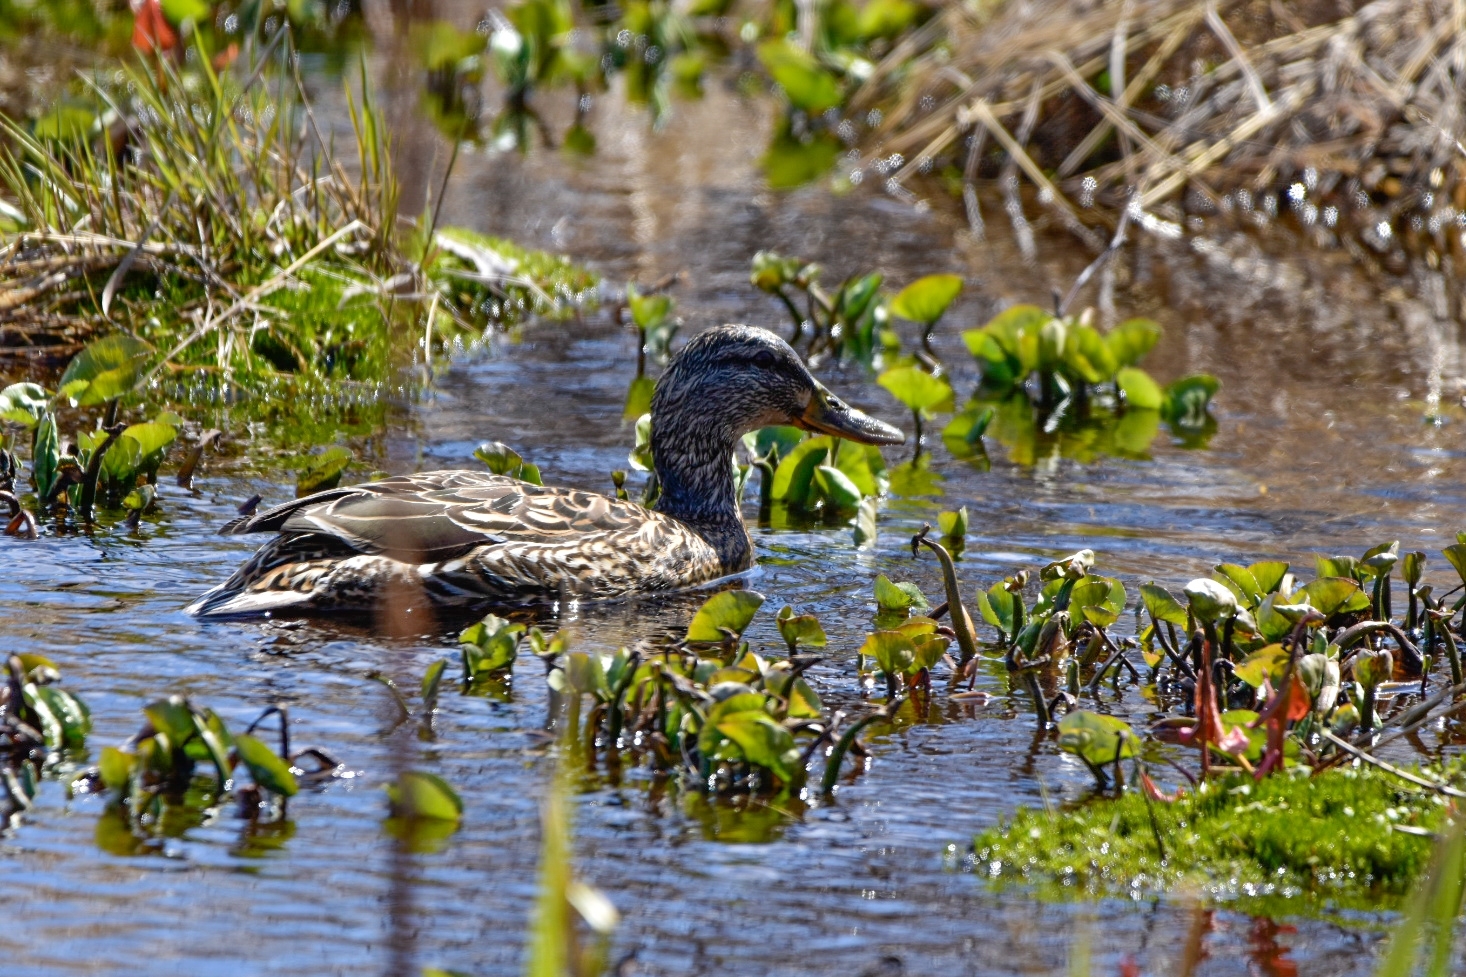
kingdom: Animalia
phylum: Chordata
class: Aves
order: Anseriformes
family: Anatidae
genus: Anas
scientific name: Anas platyrhynchos
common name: Mallard
